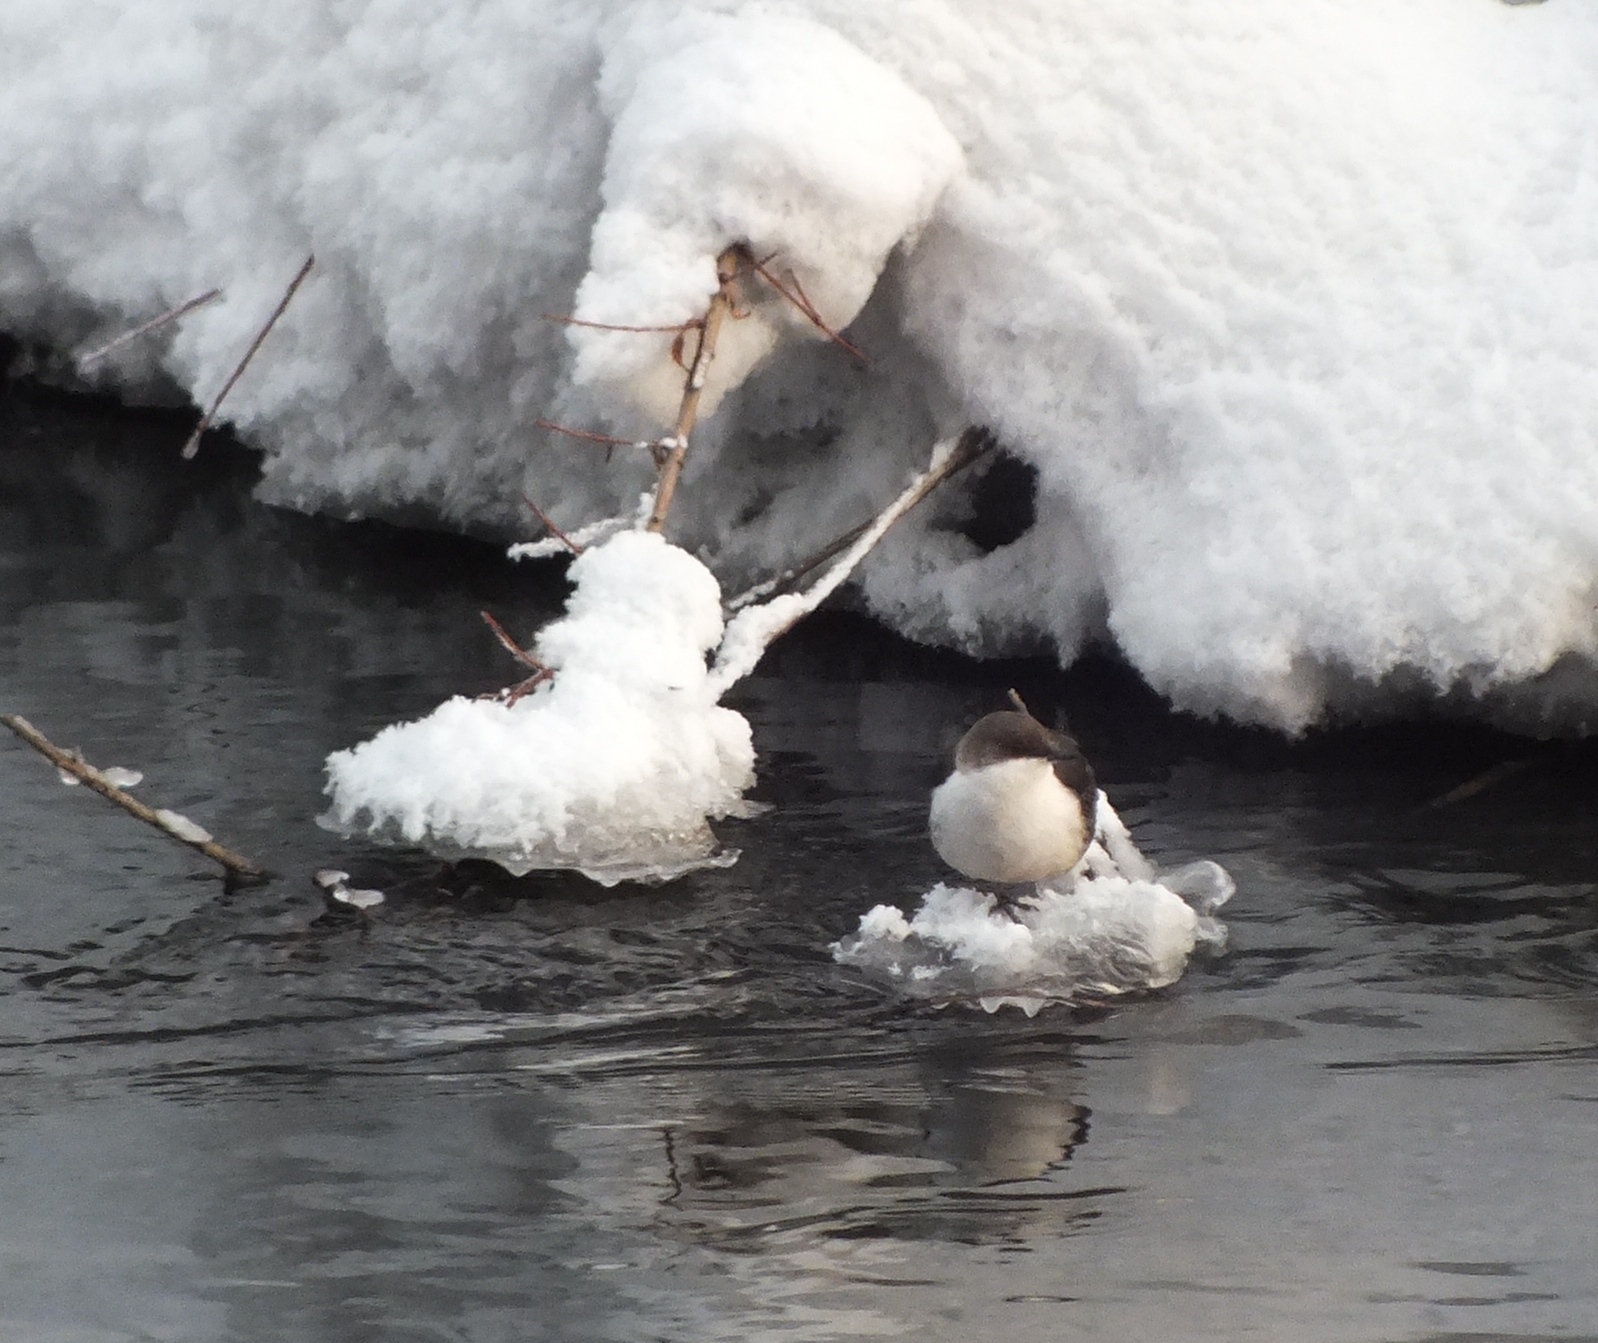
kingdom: Animalia
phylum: Chordata
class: Aves
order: Passeriformes
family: Cinclidae
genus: Cinclus
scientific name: Cinclus cinclus
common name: White-throated dipper
